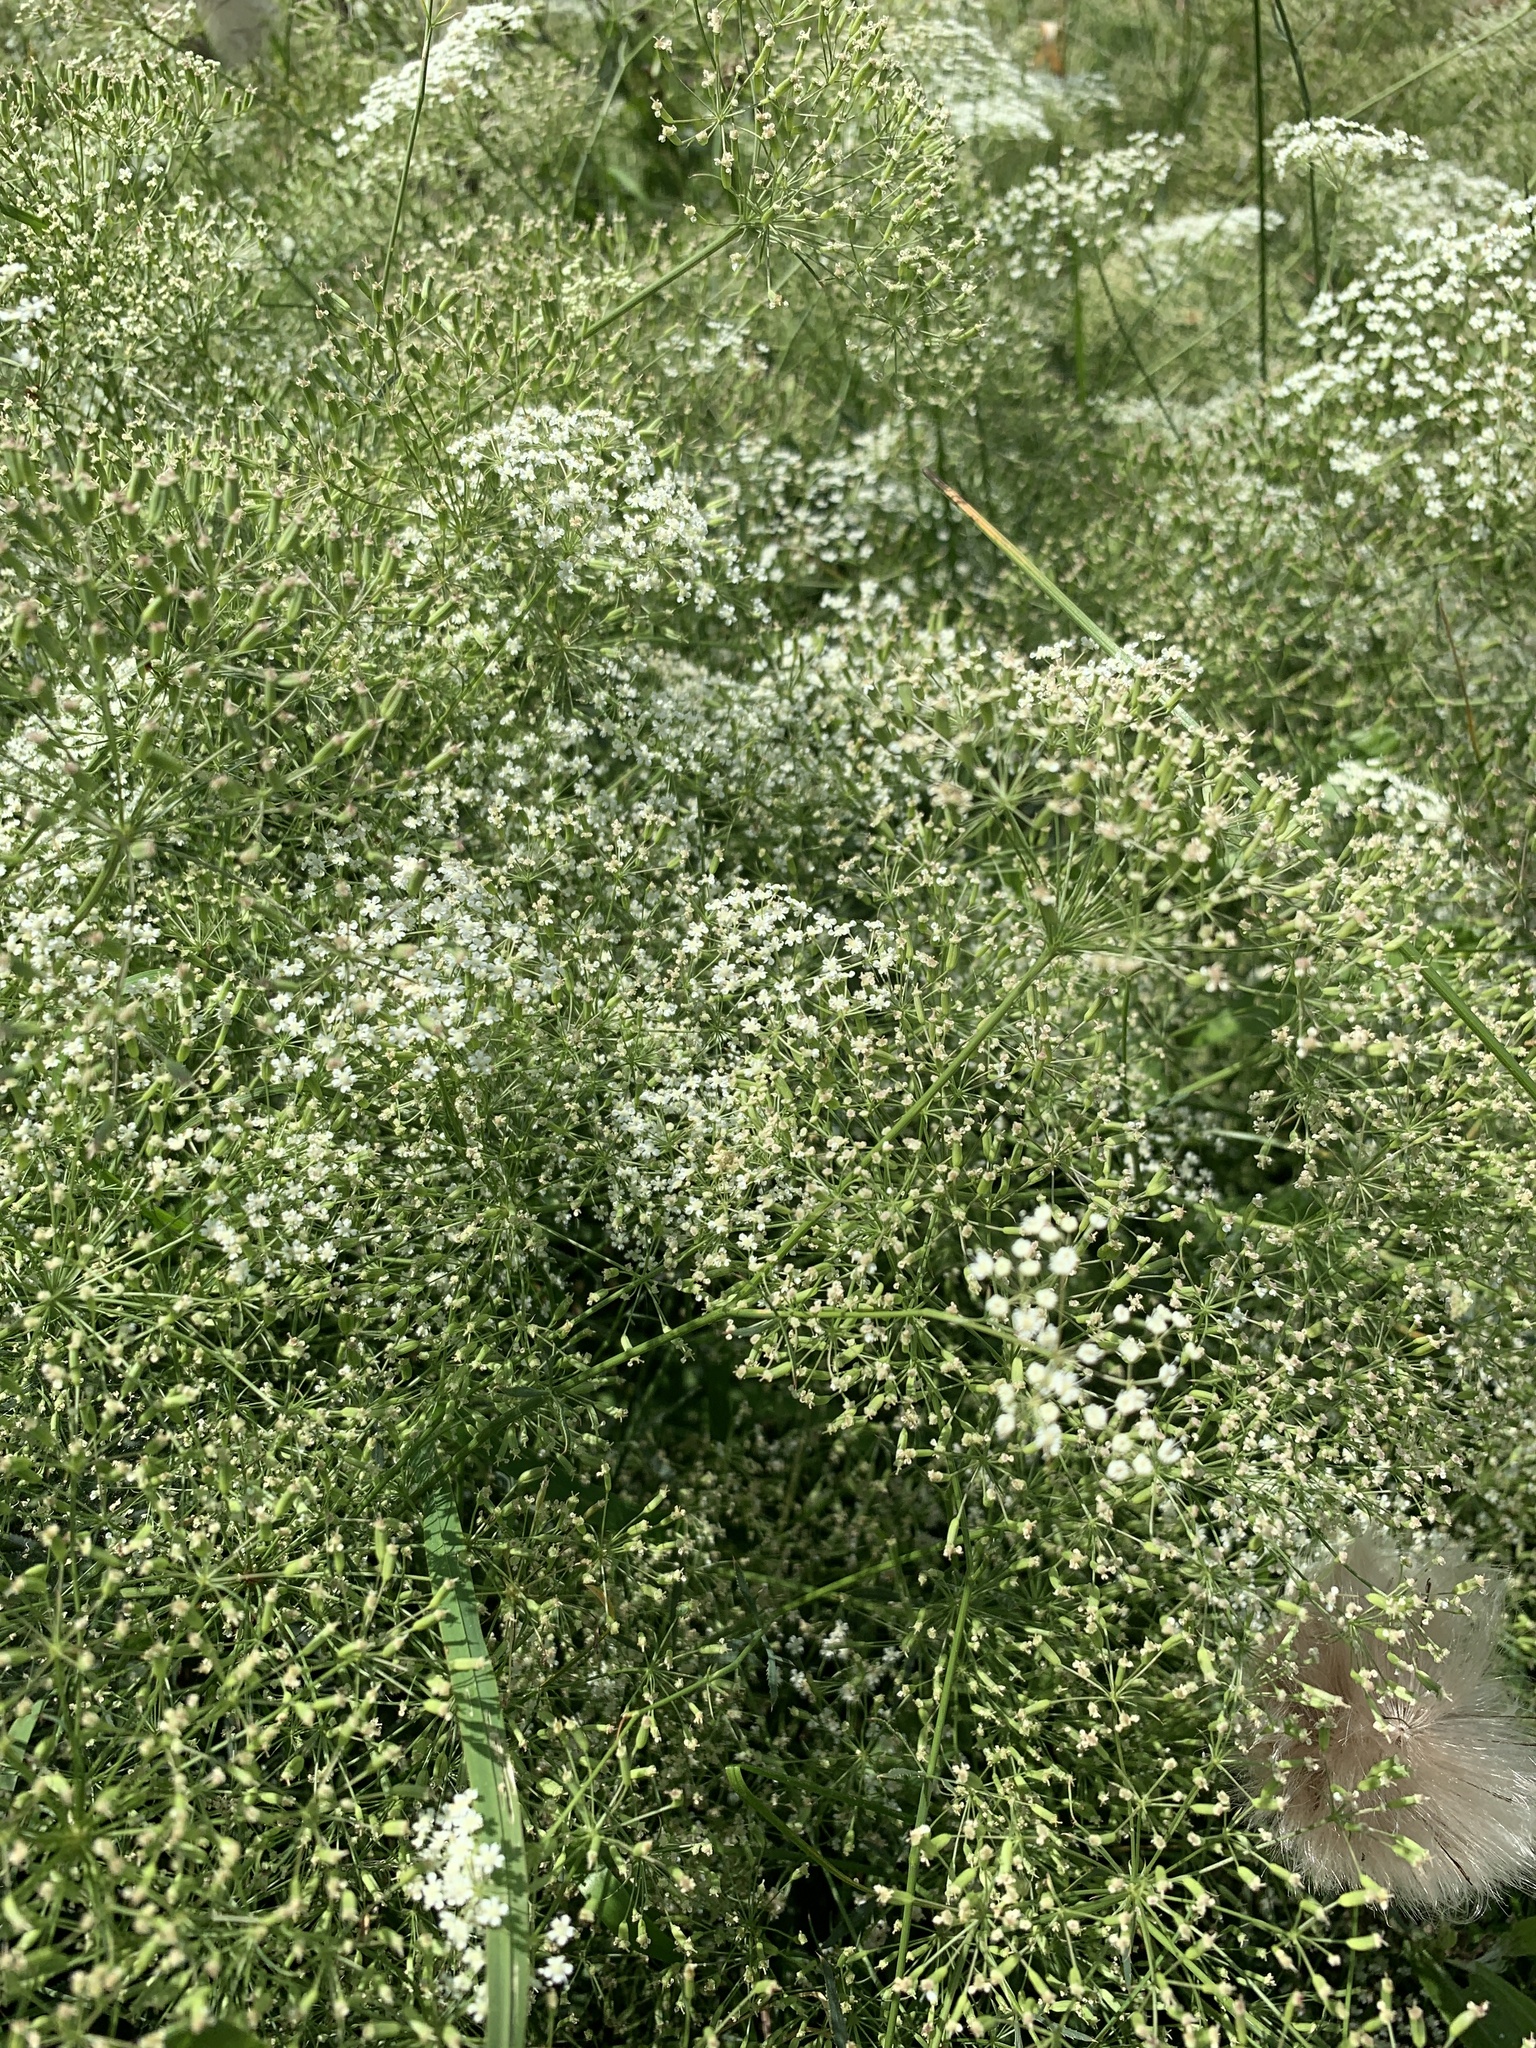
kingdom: Plantae
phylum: Tracheophyta
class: Magnoliopsida
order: Apiales
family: Apiaceae
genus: Falcaria
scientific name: Falcaria vulgaris
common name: Longleaf
